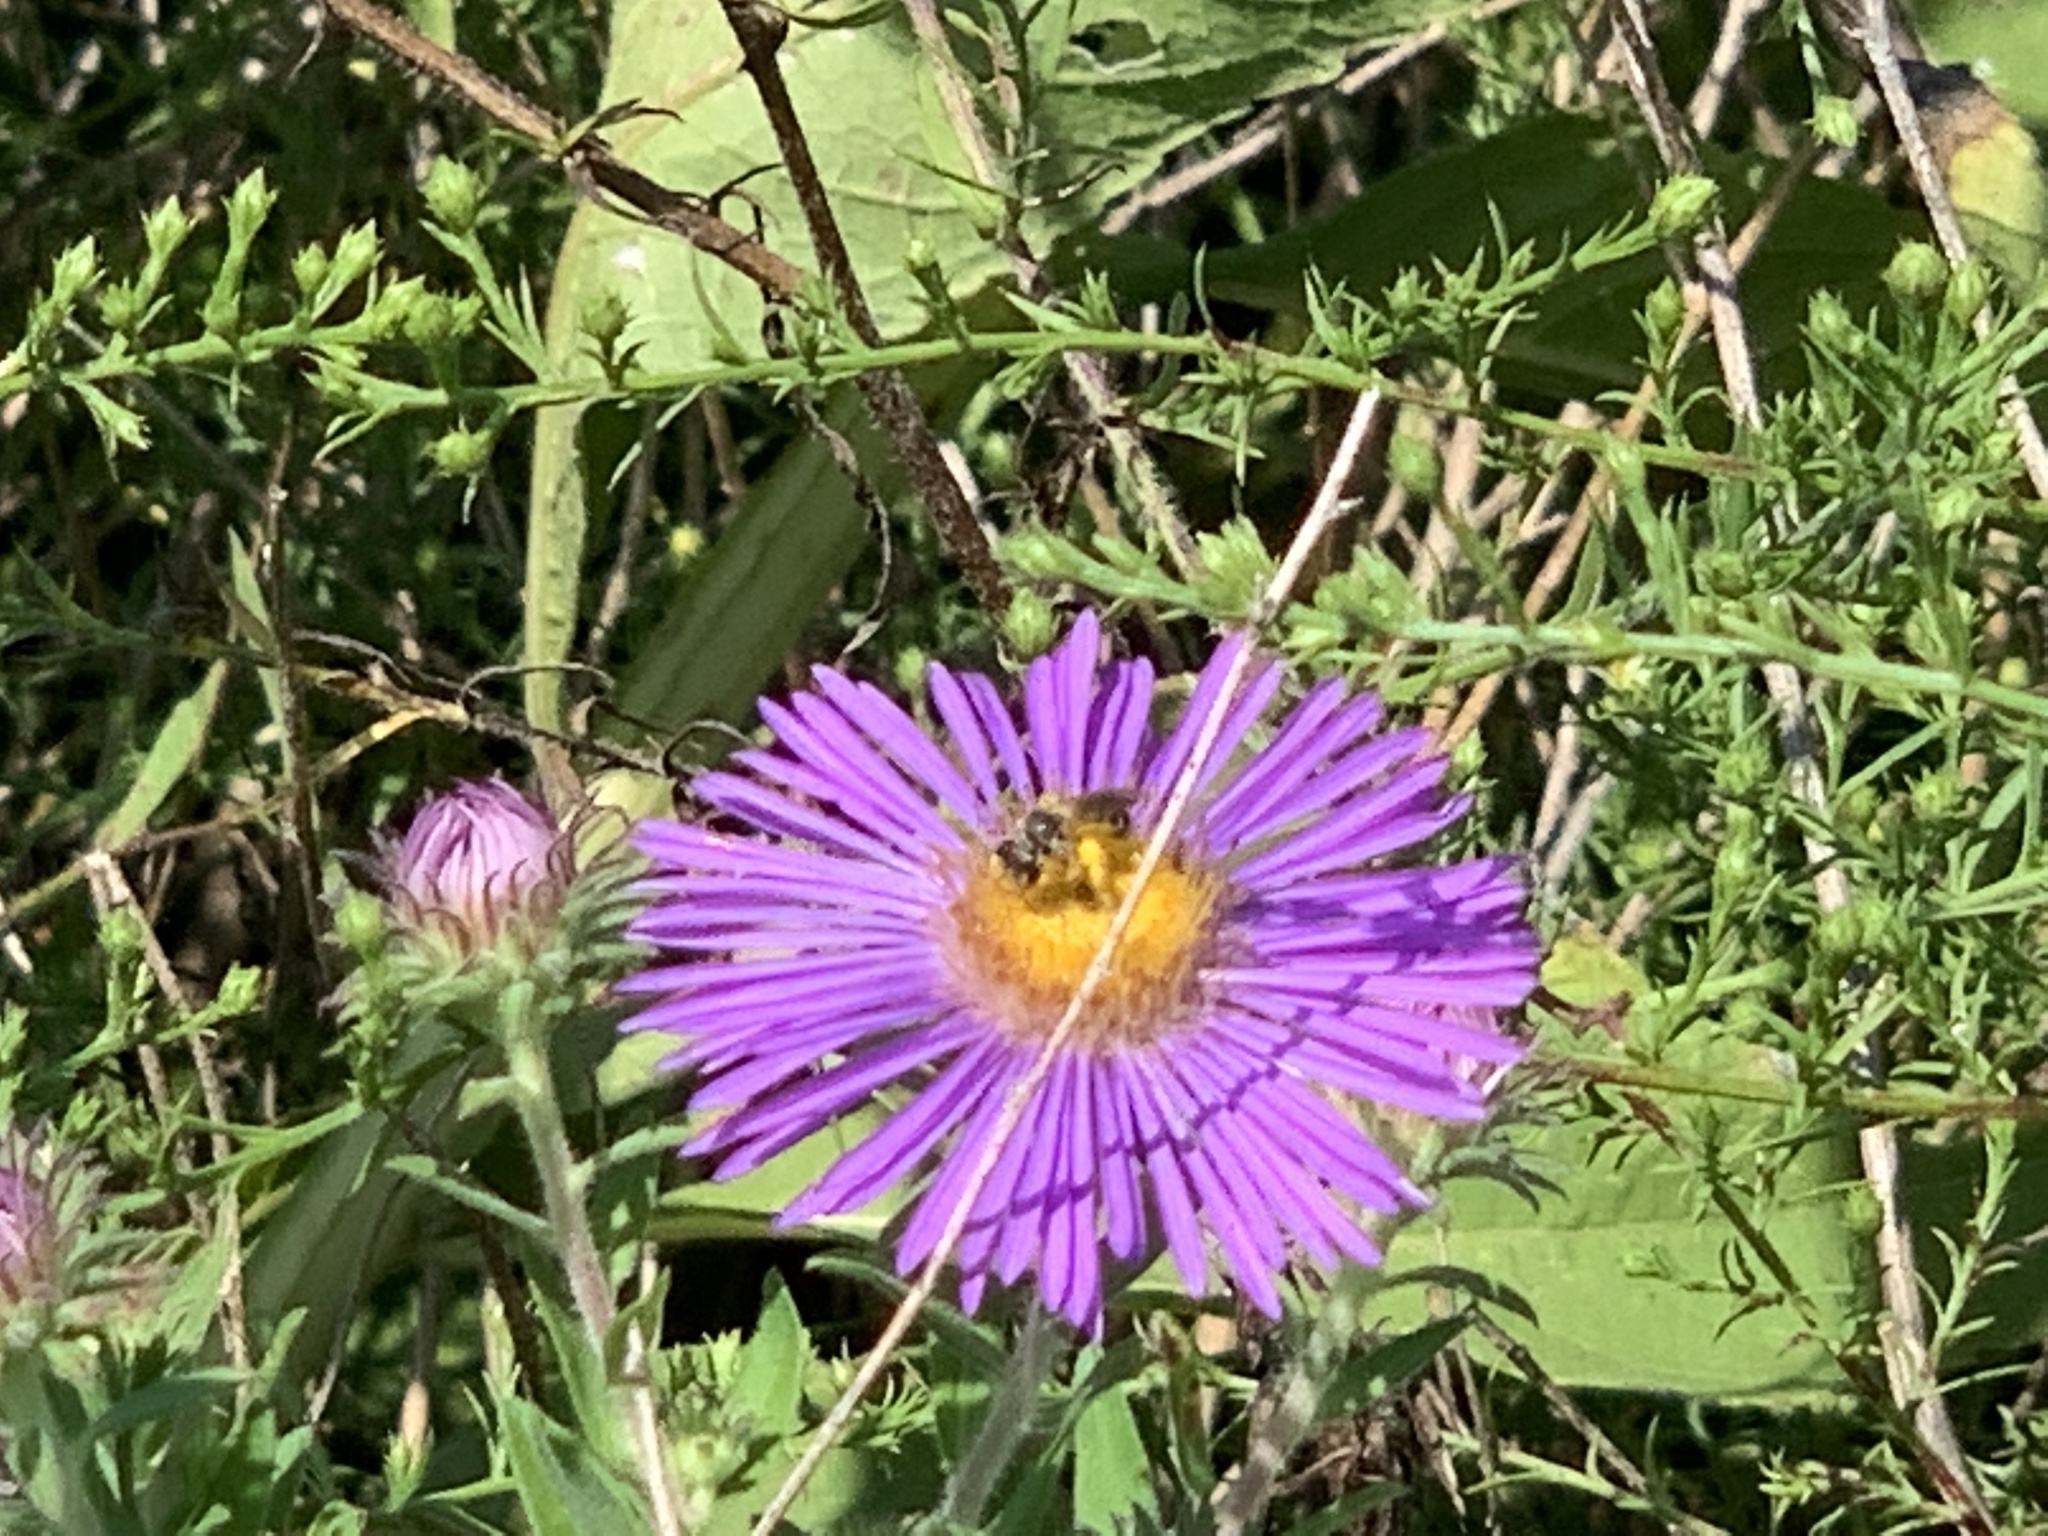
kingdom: Animalia
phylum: Arthropoda
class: Insecta
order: Hymenoptera
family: Halictidae
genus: Halictus
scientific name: Halictus ligatus
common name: Ligated furrow bee
